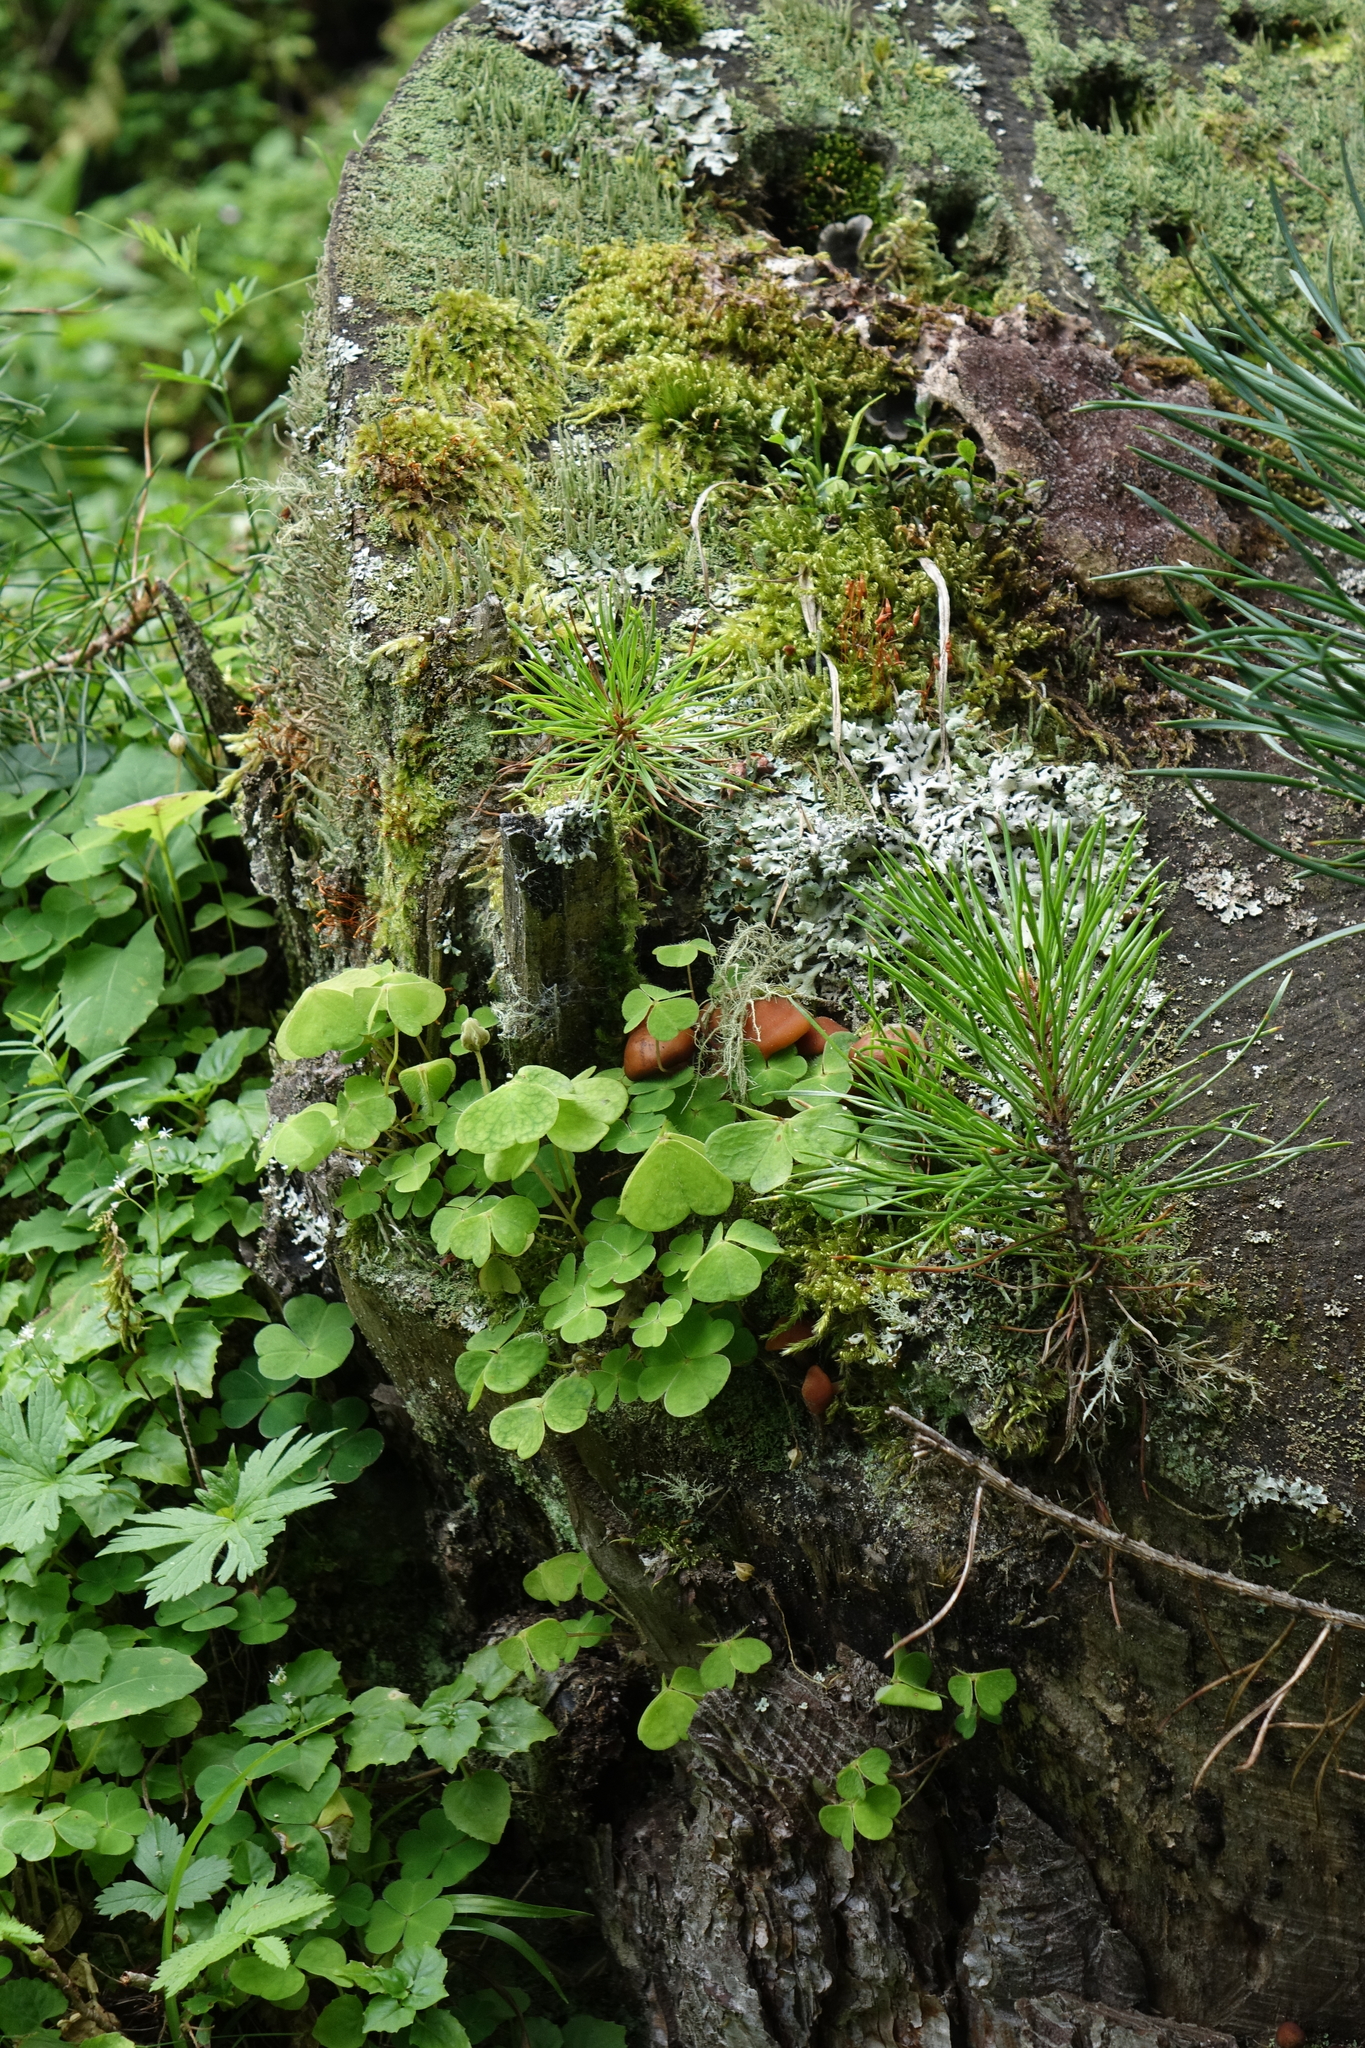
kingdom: Plantae
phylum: Tracheophyta
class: Magnoliopsida
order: Oxalidales
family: Oxalidaceae
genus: Oxalis
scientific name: Oxalis acetosella
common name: Wood-sorrel
